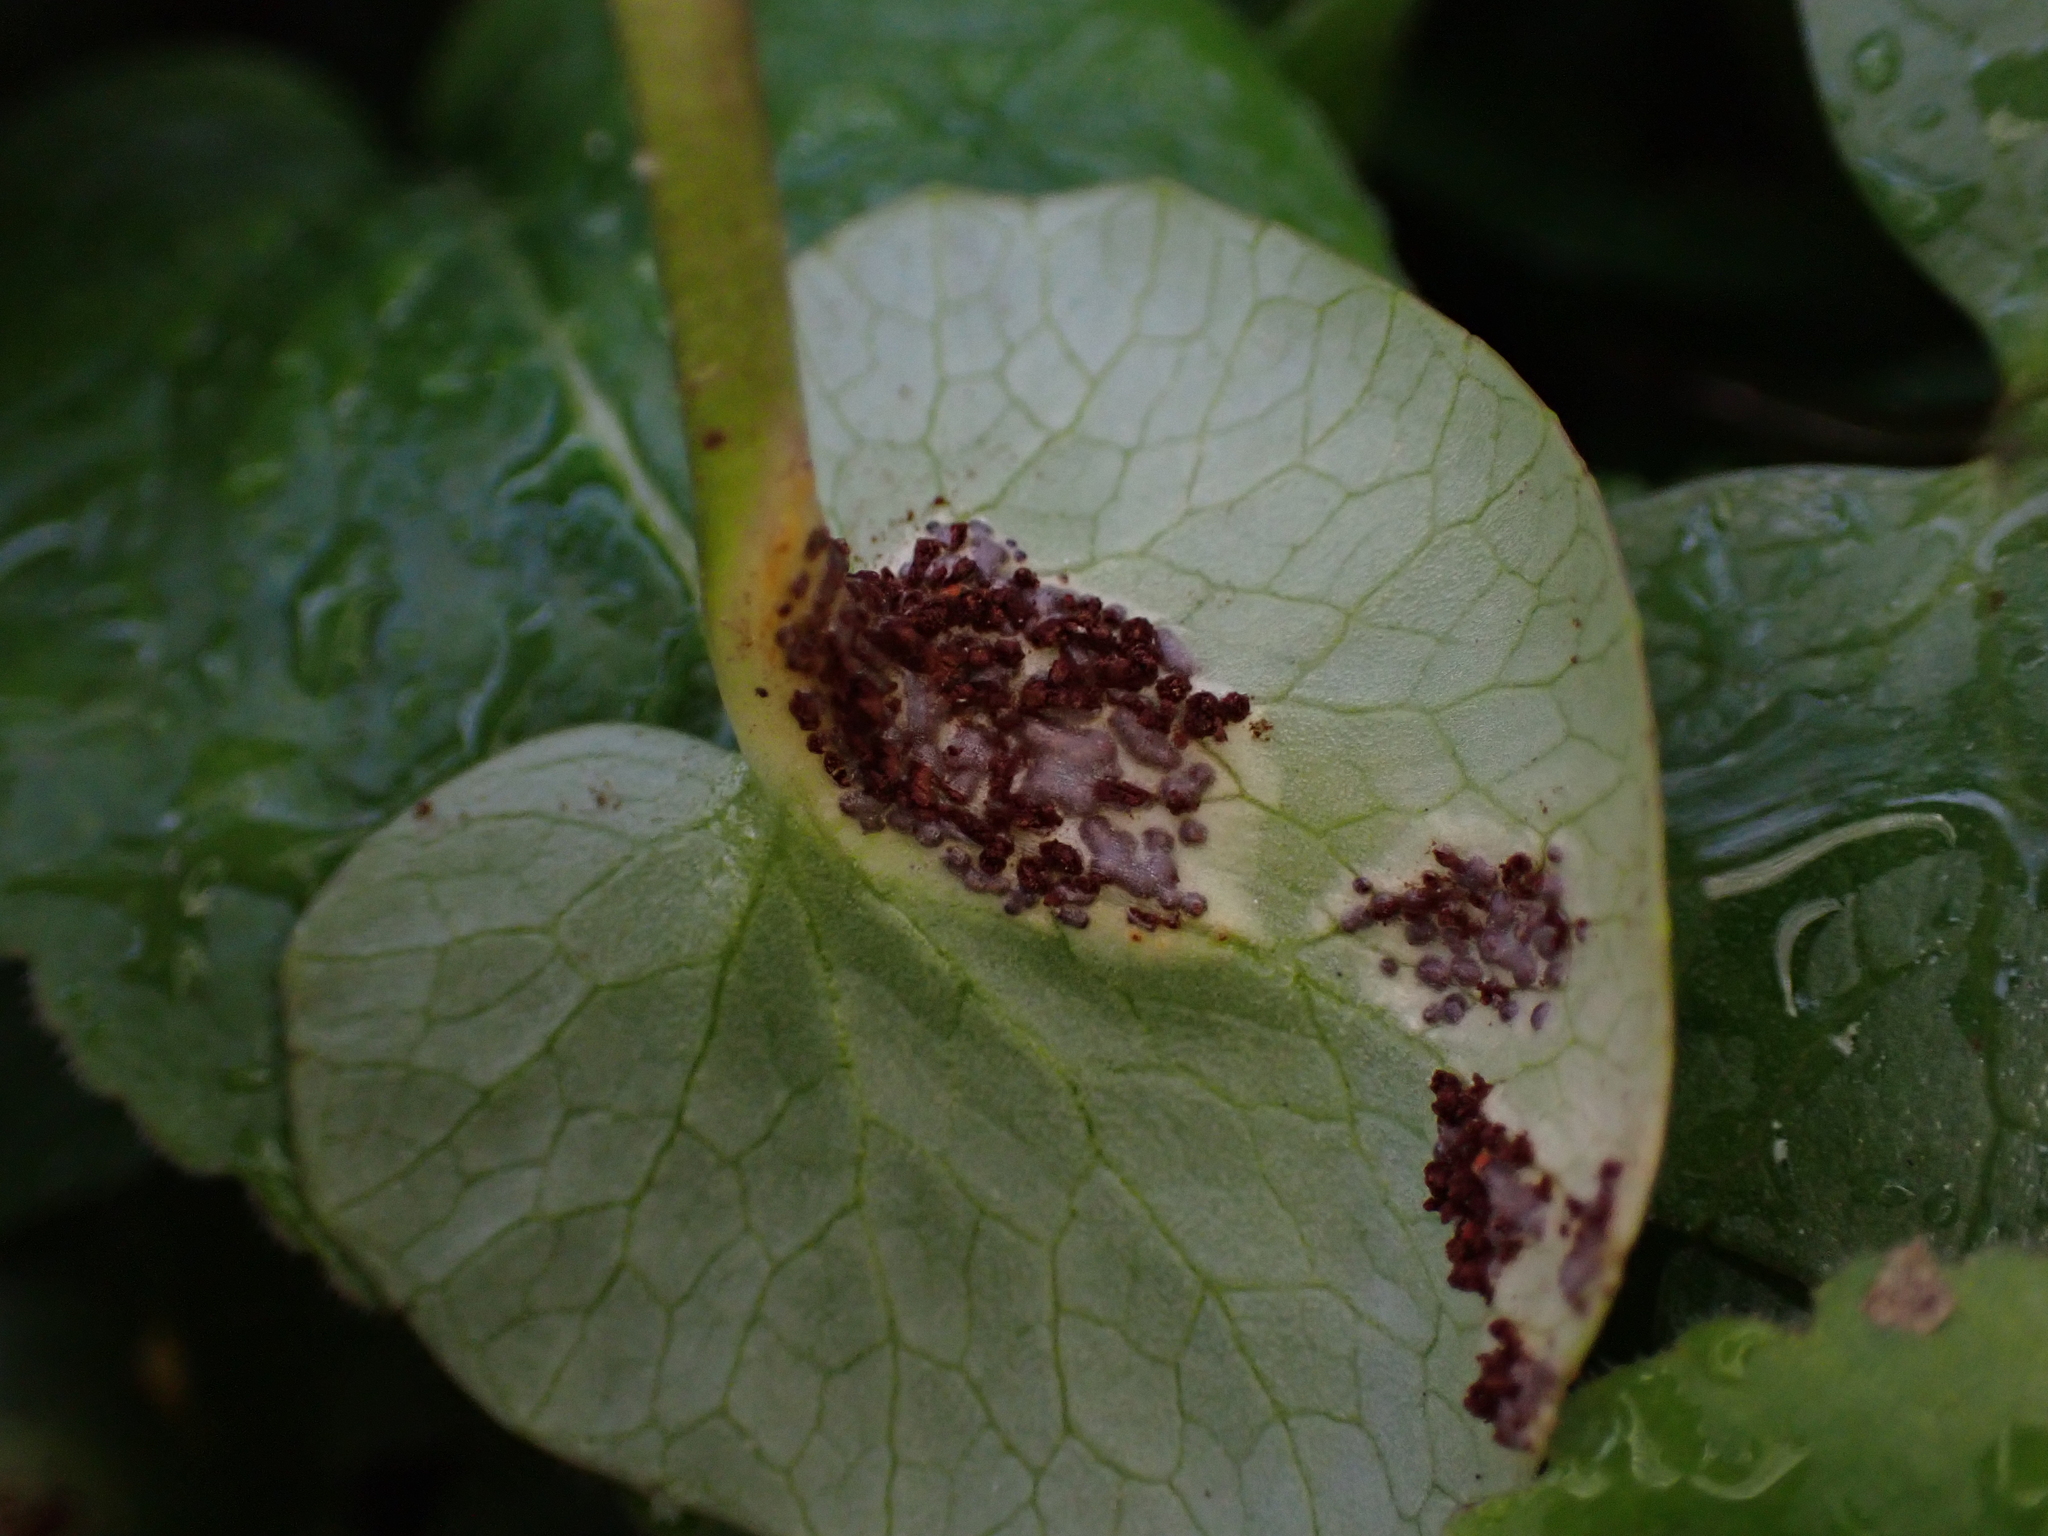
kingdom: Fungi
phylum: Basidiomycota
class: Pucciniomycetes
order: Pucciniales
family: Pucciniaceae
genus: Uromyces
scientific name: Uromyces ficariae
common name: Bitter chocolate rust
